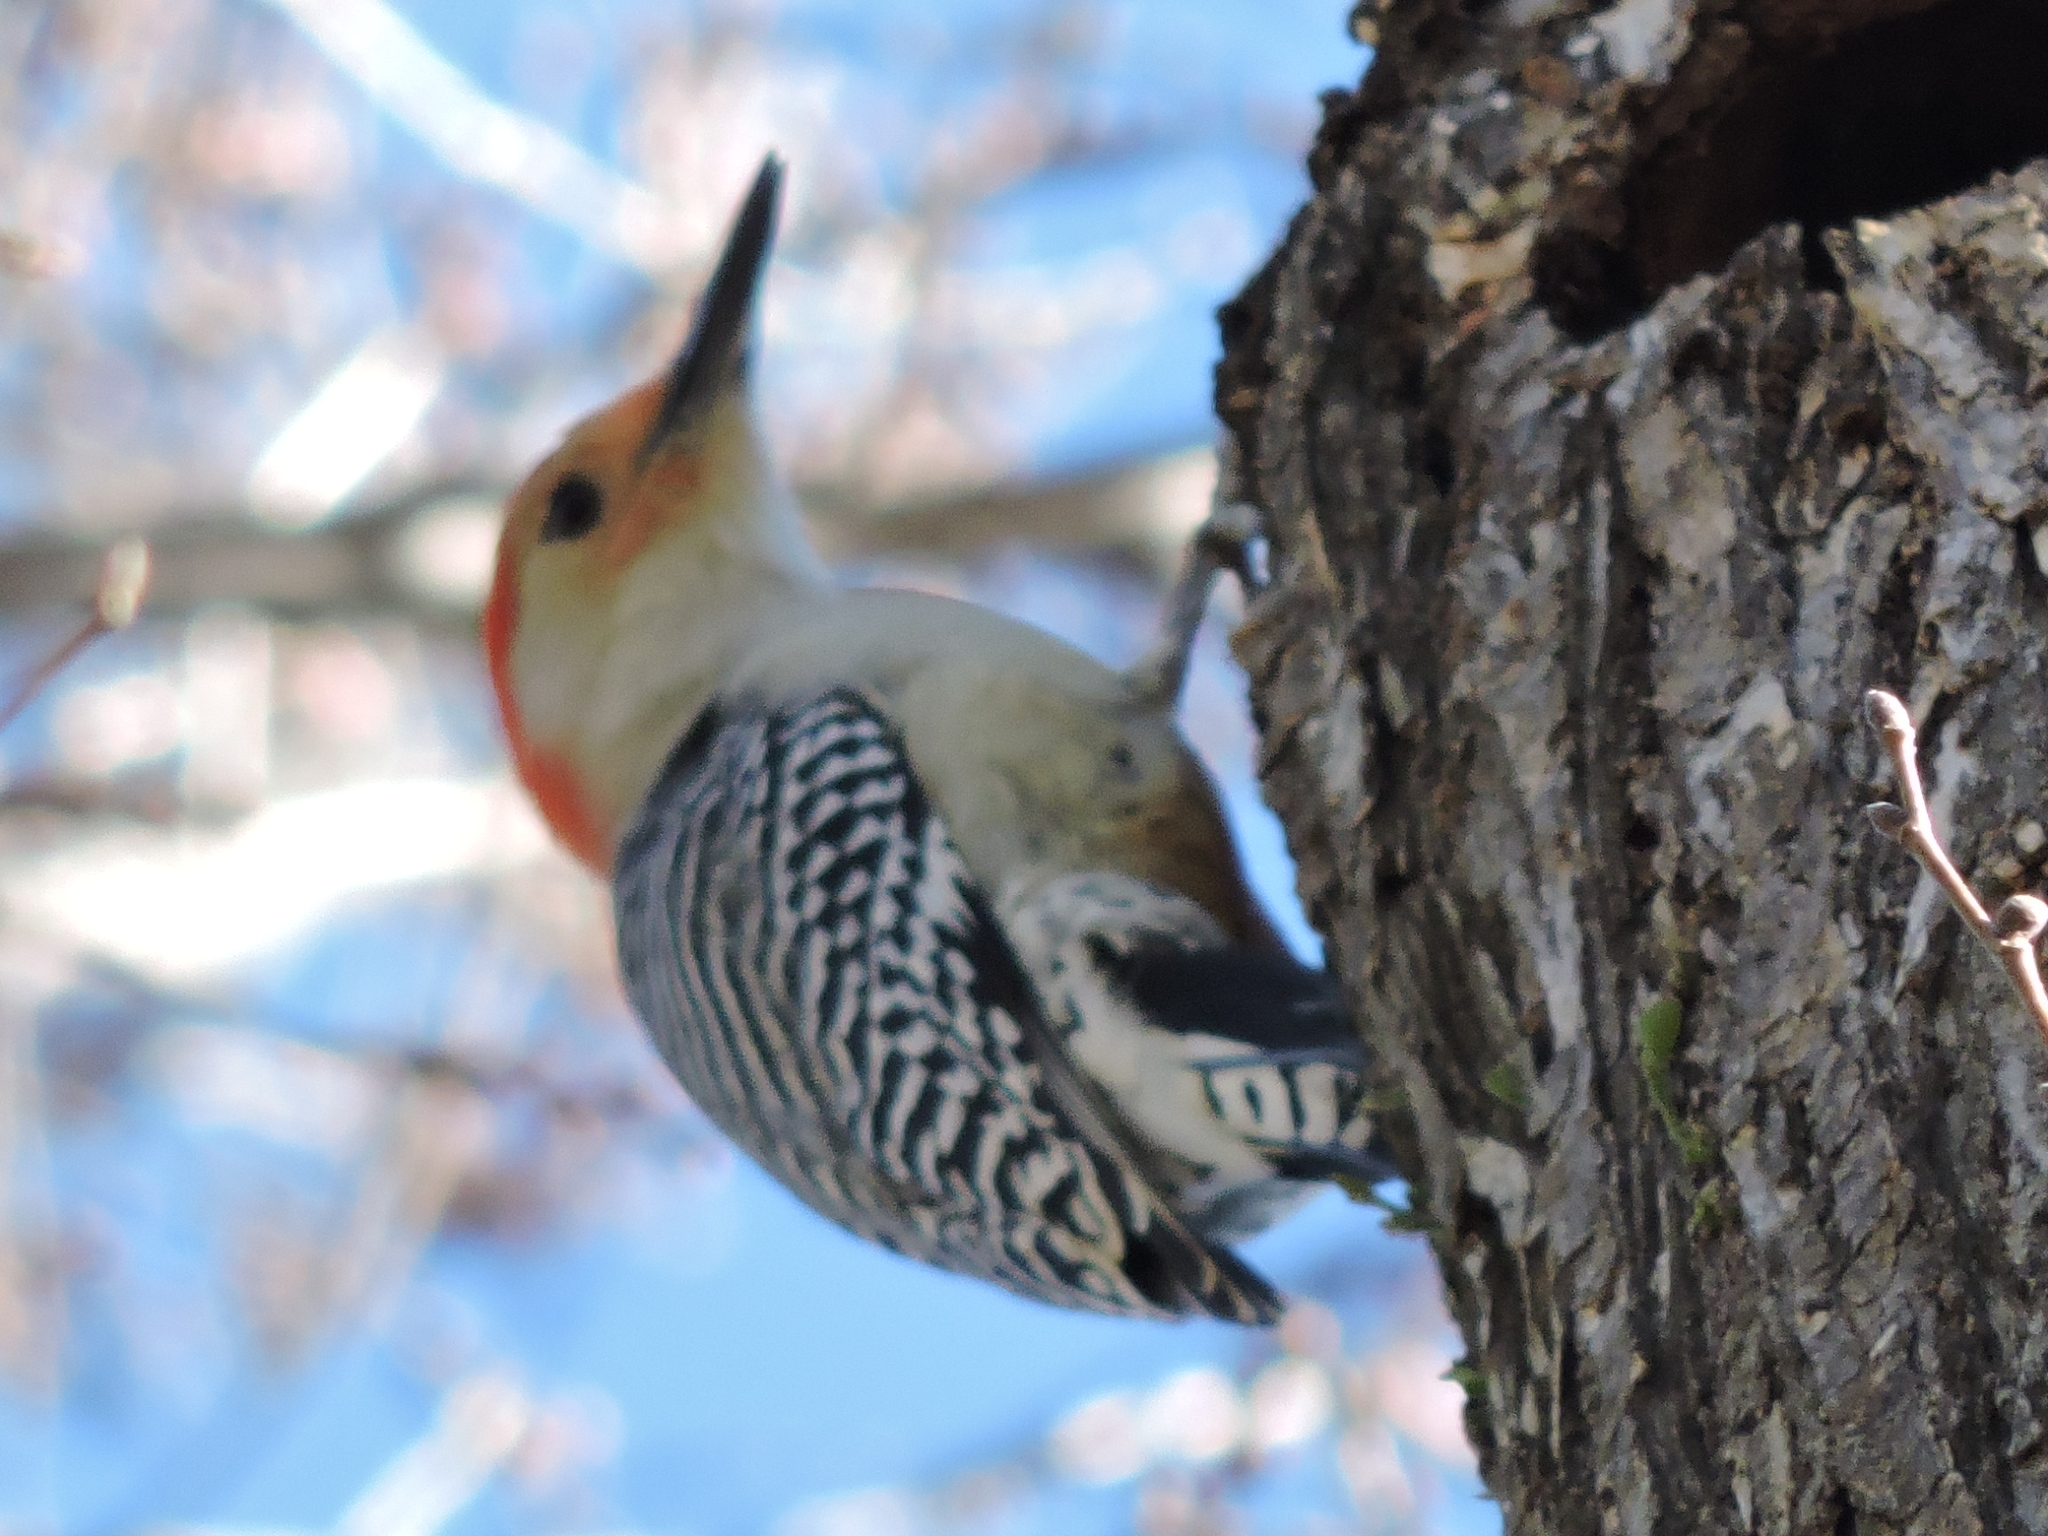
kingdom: Animalia
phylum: Chordata
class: Aves
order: Piciformes
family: Picidae
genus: Melanerpes
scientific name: Melanerpes carolinus
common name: Red-bellied woodpecker
